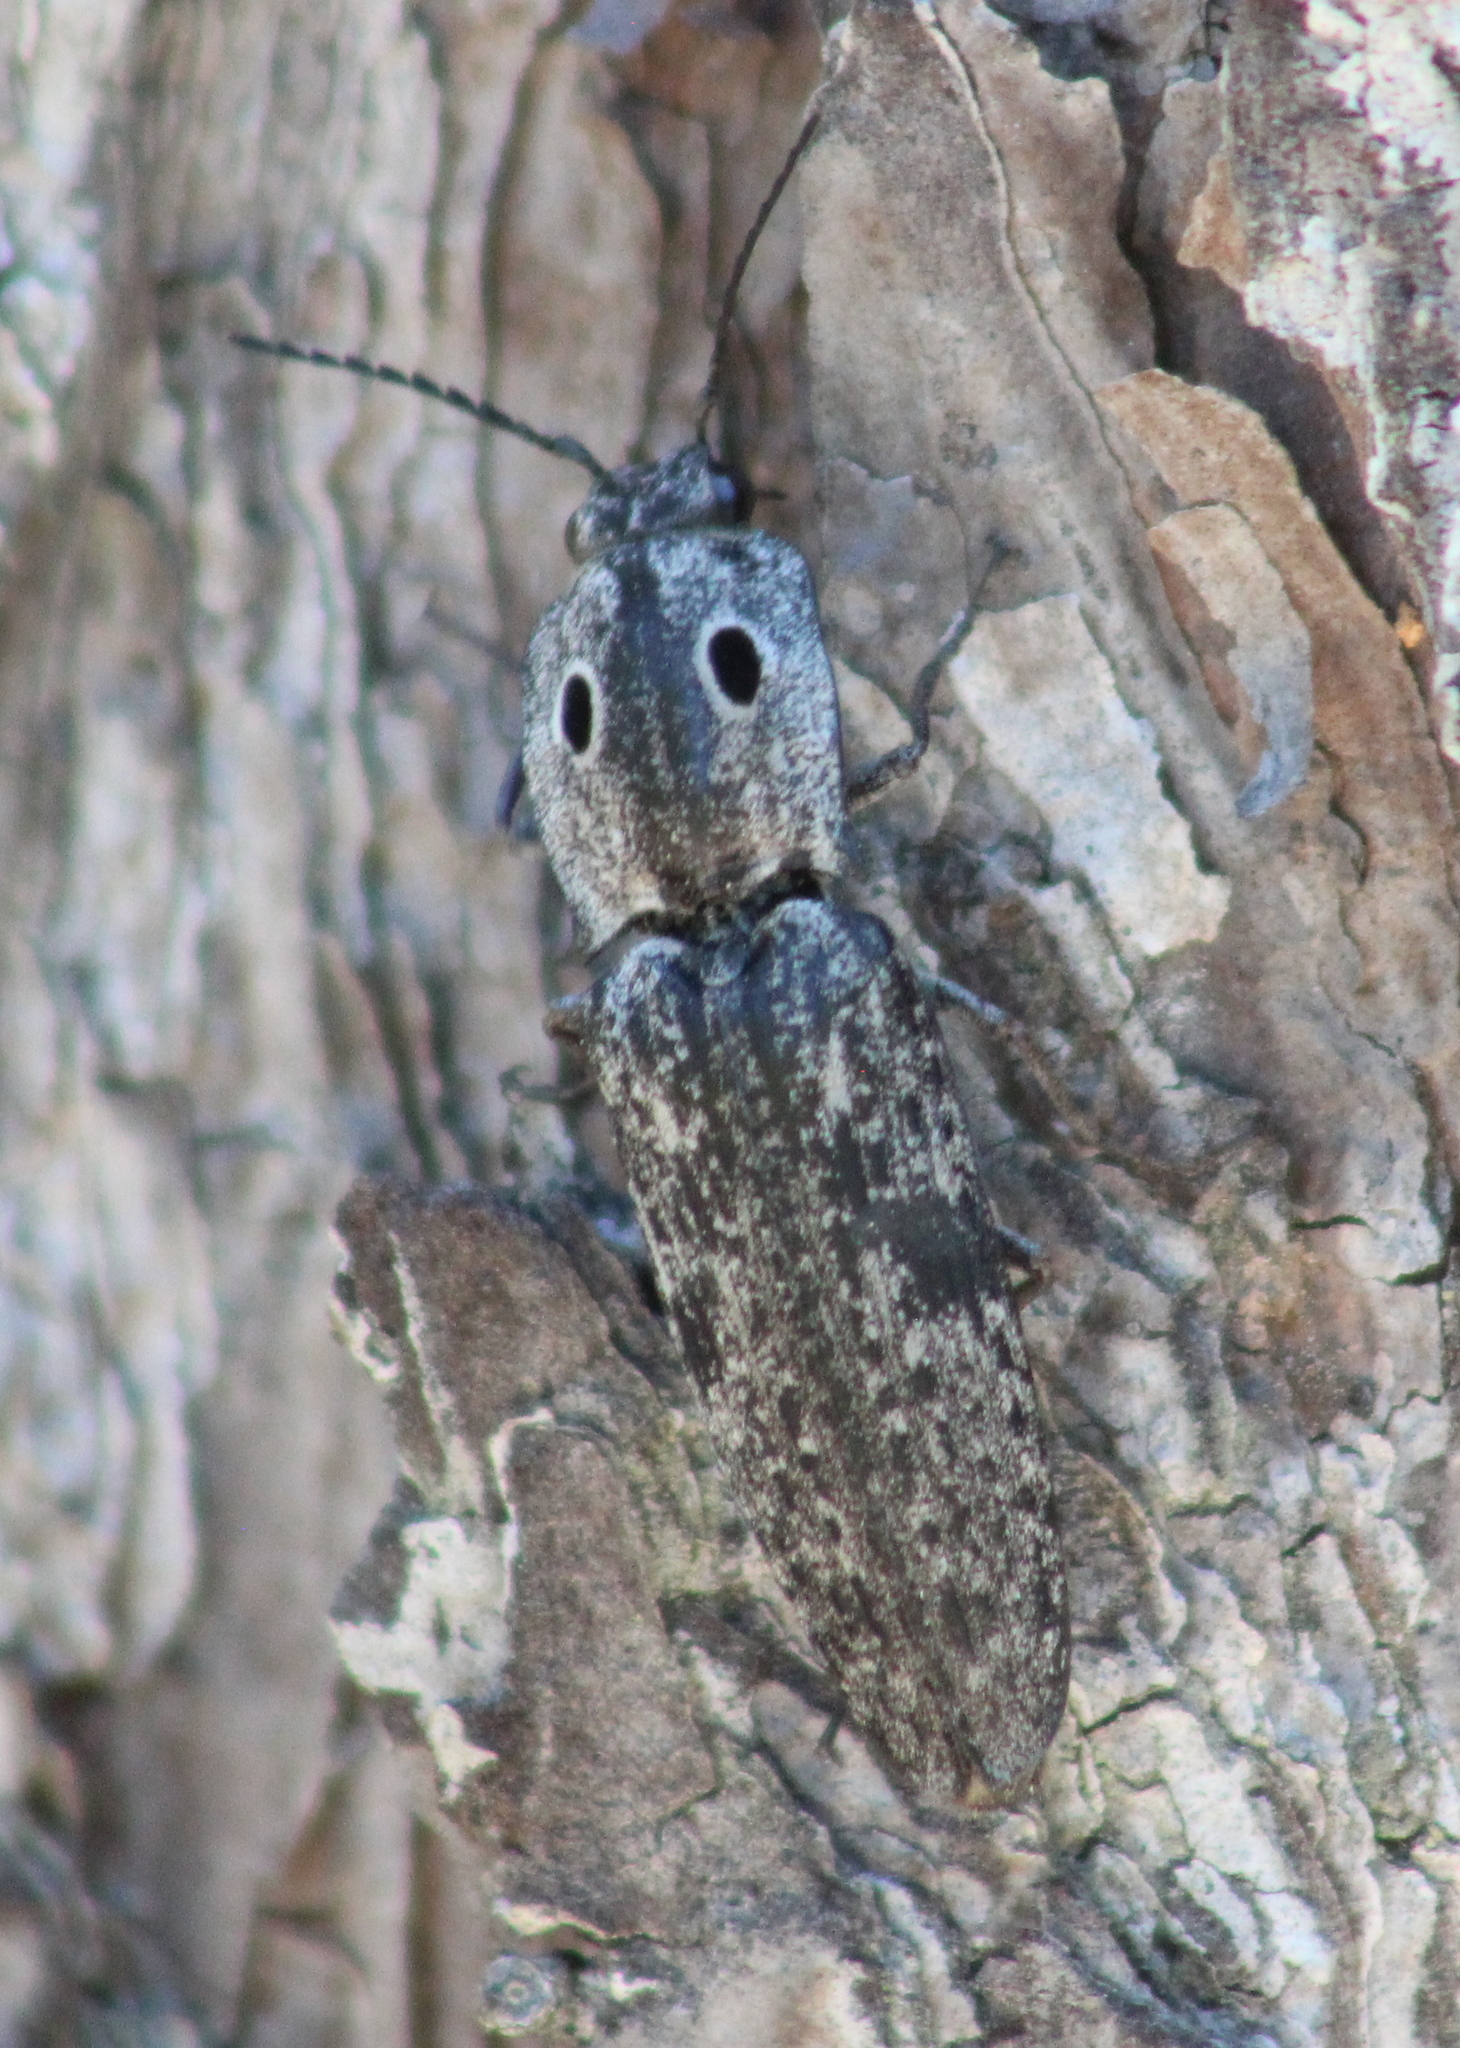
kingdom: Animalia
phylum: Arthropoda
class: Insecta
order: Coleoptera
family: Elateridae
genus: Alaus
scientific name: Alaus myops
